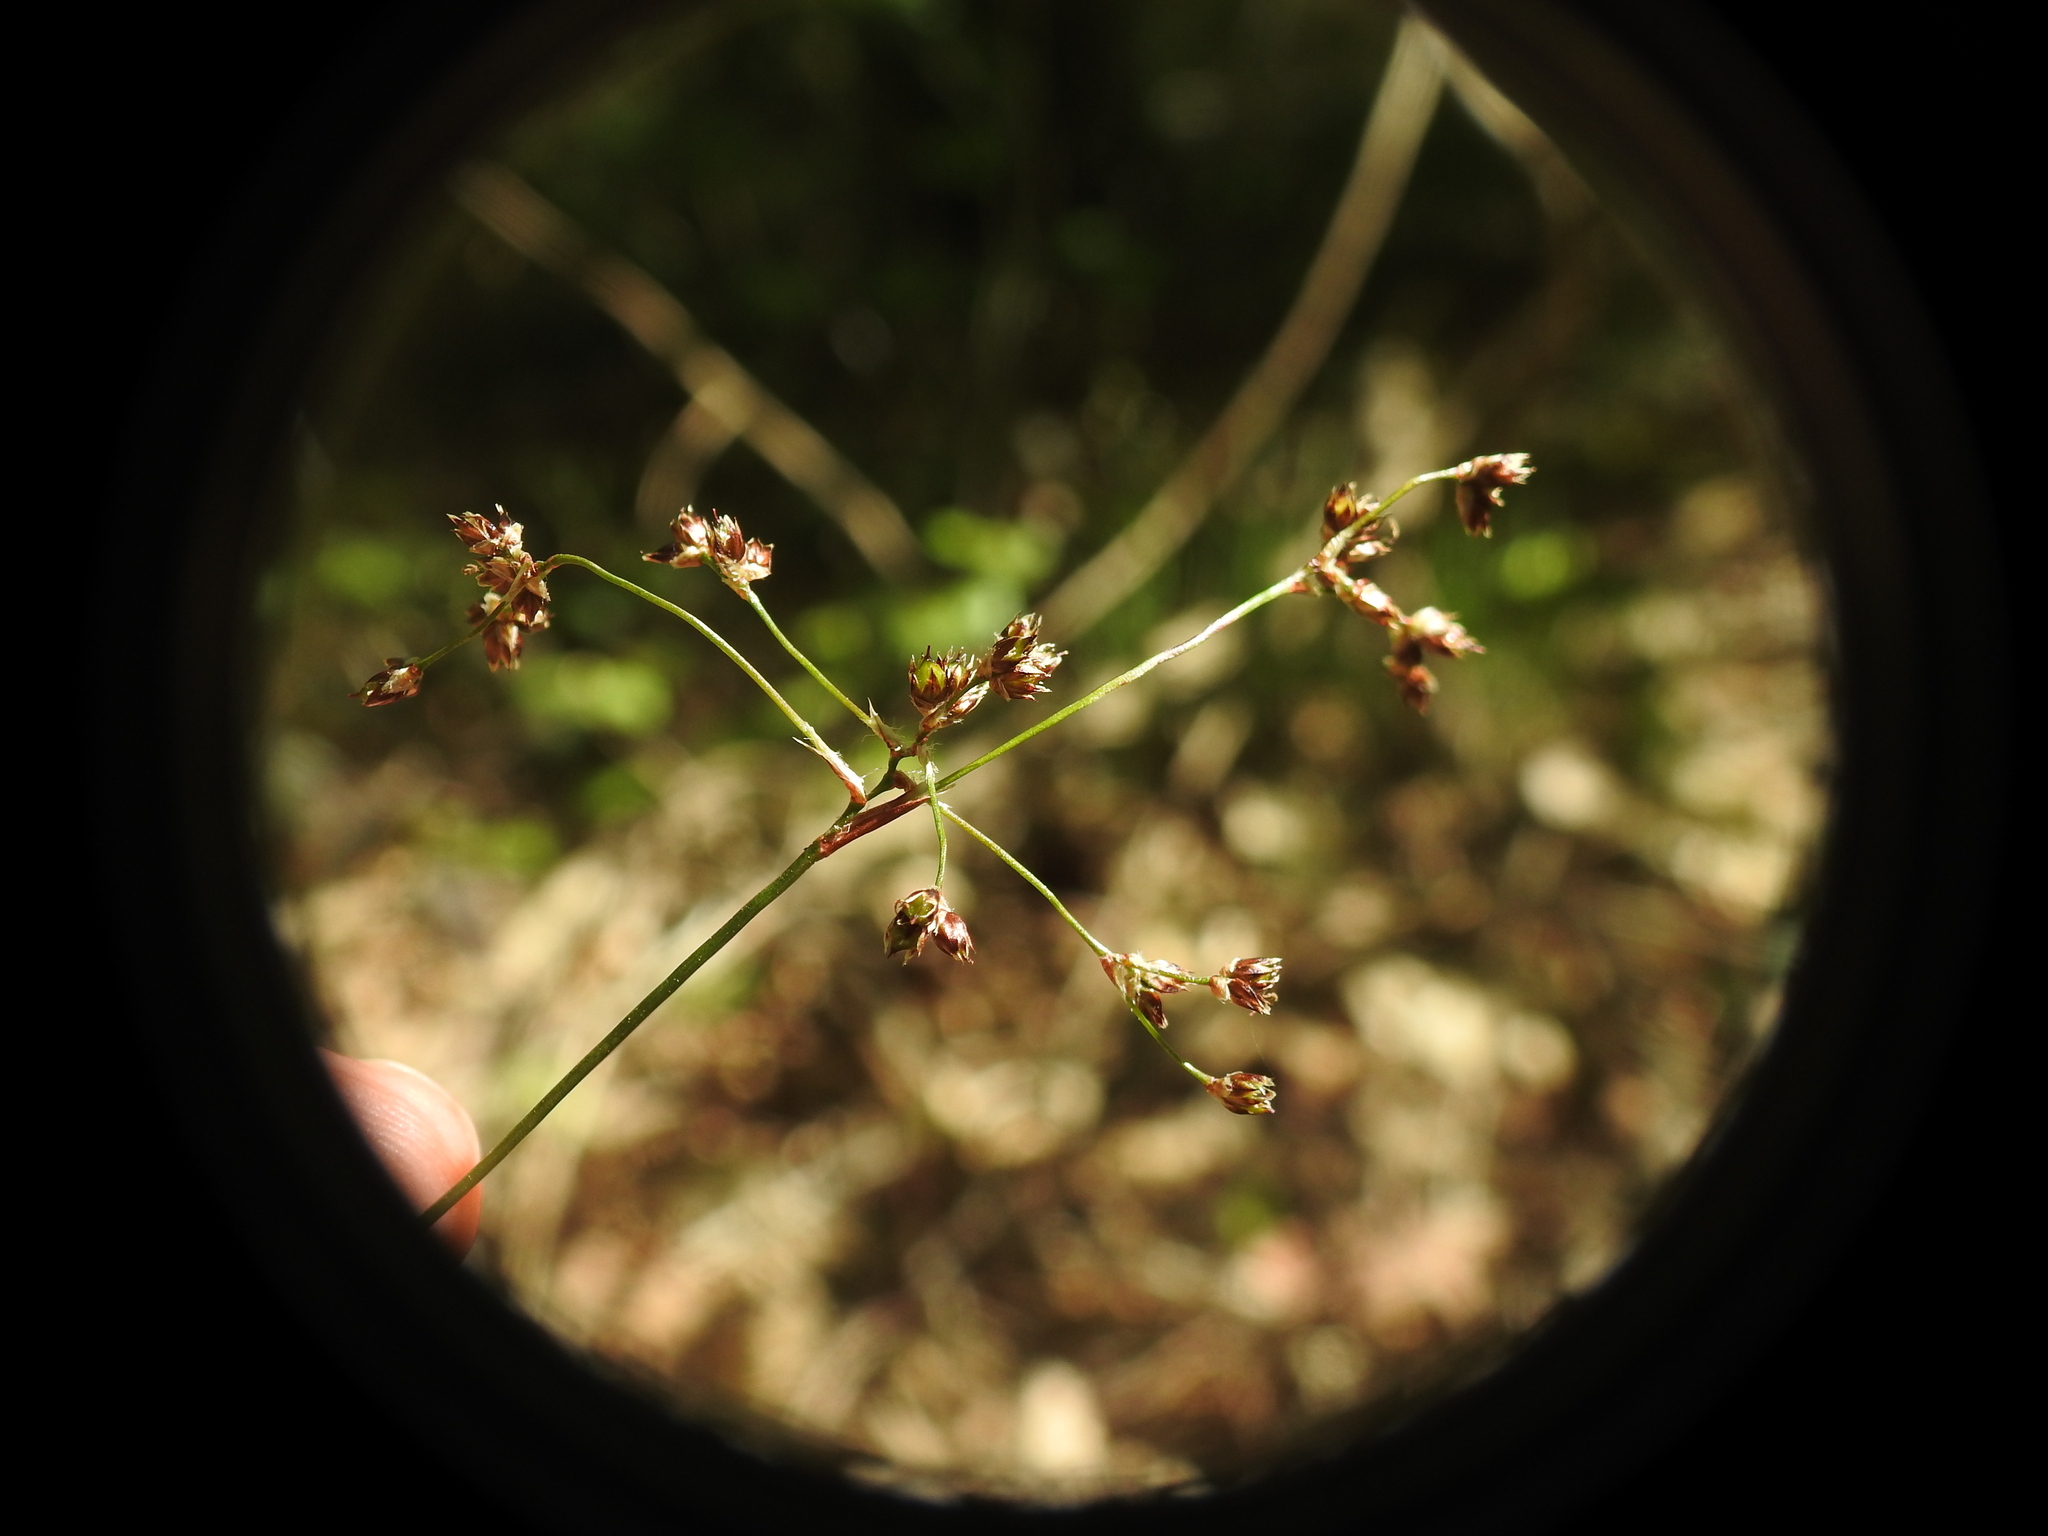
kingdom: Plantae
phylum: Tracheophyta
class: Liliopsida
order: Poales
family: Juncaceae
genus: Luzula
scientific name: Luzula sylvatica
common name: Great wood-rush
